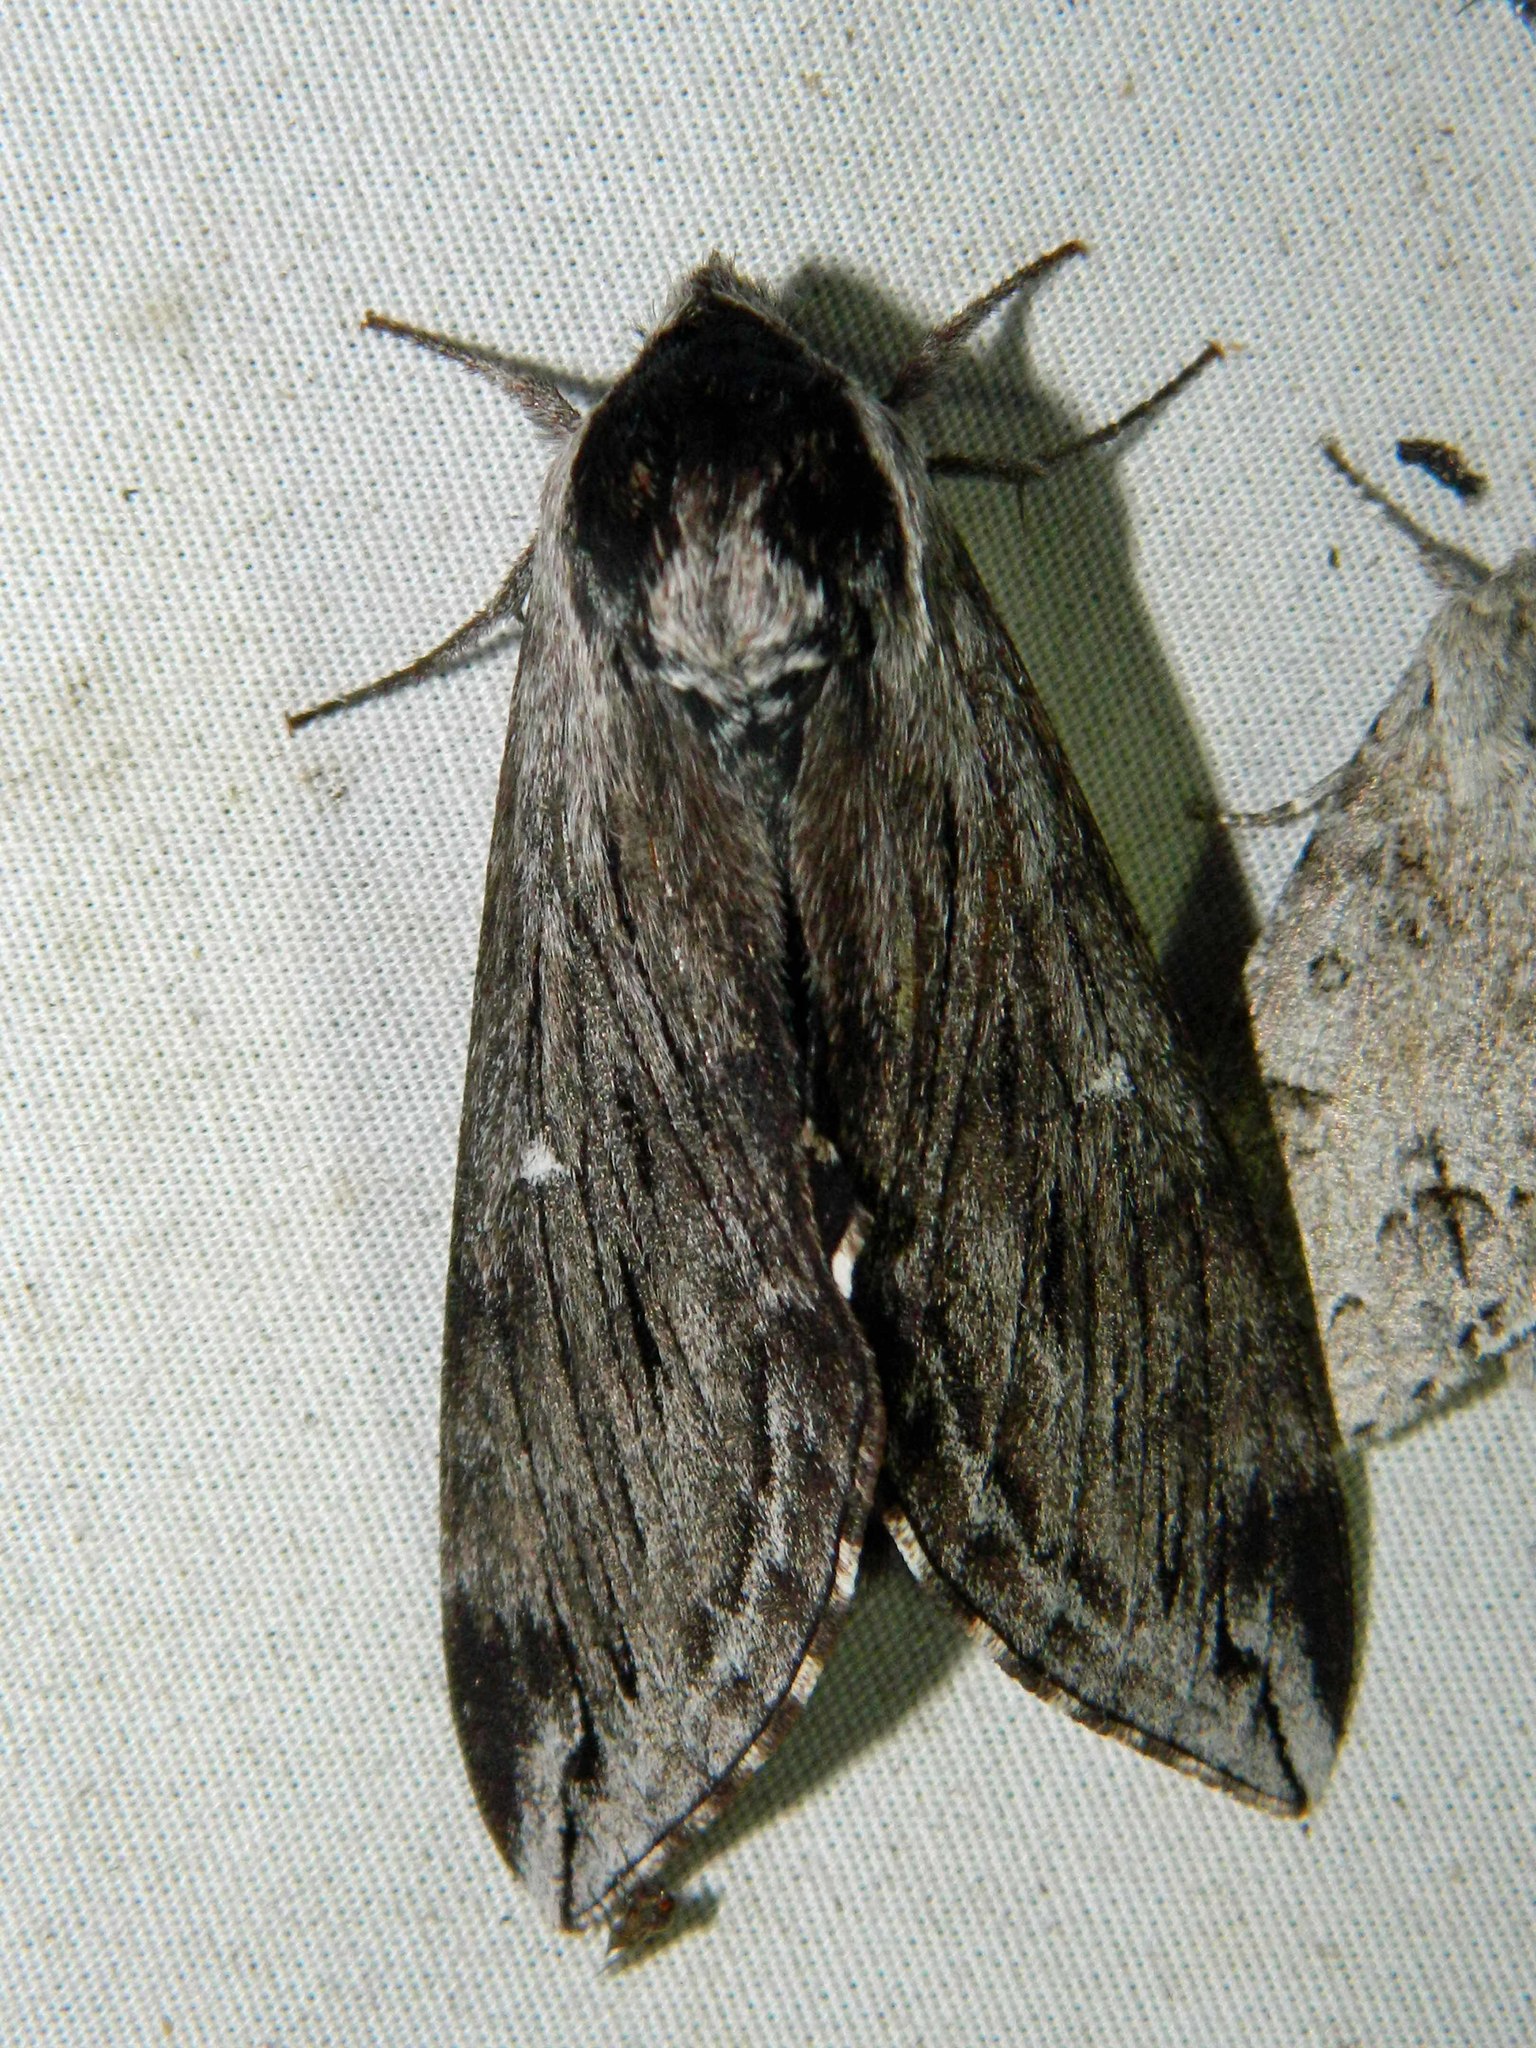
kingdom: Animalia
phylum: Arthropoda
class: Insecta
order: Lepidoptera
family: Sphingidae
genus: Sphinx
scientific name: Sphinx poecila
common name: Northern apple sphinx
